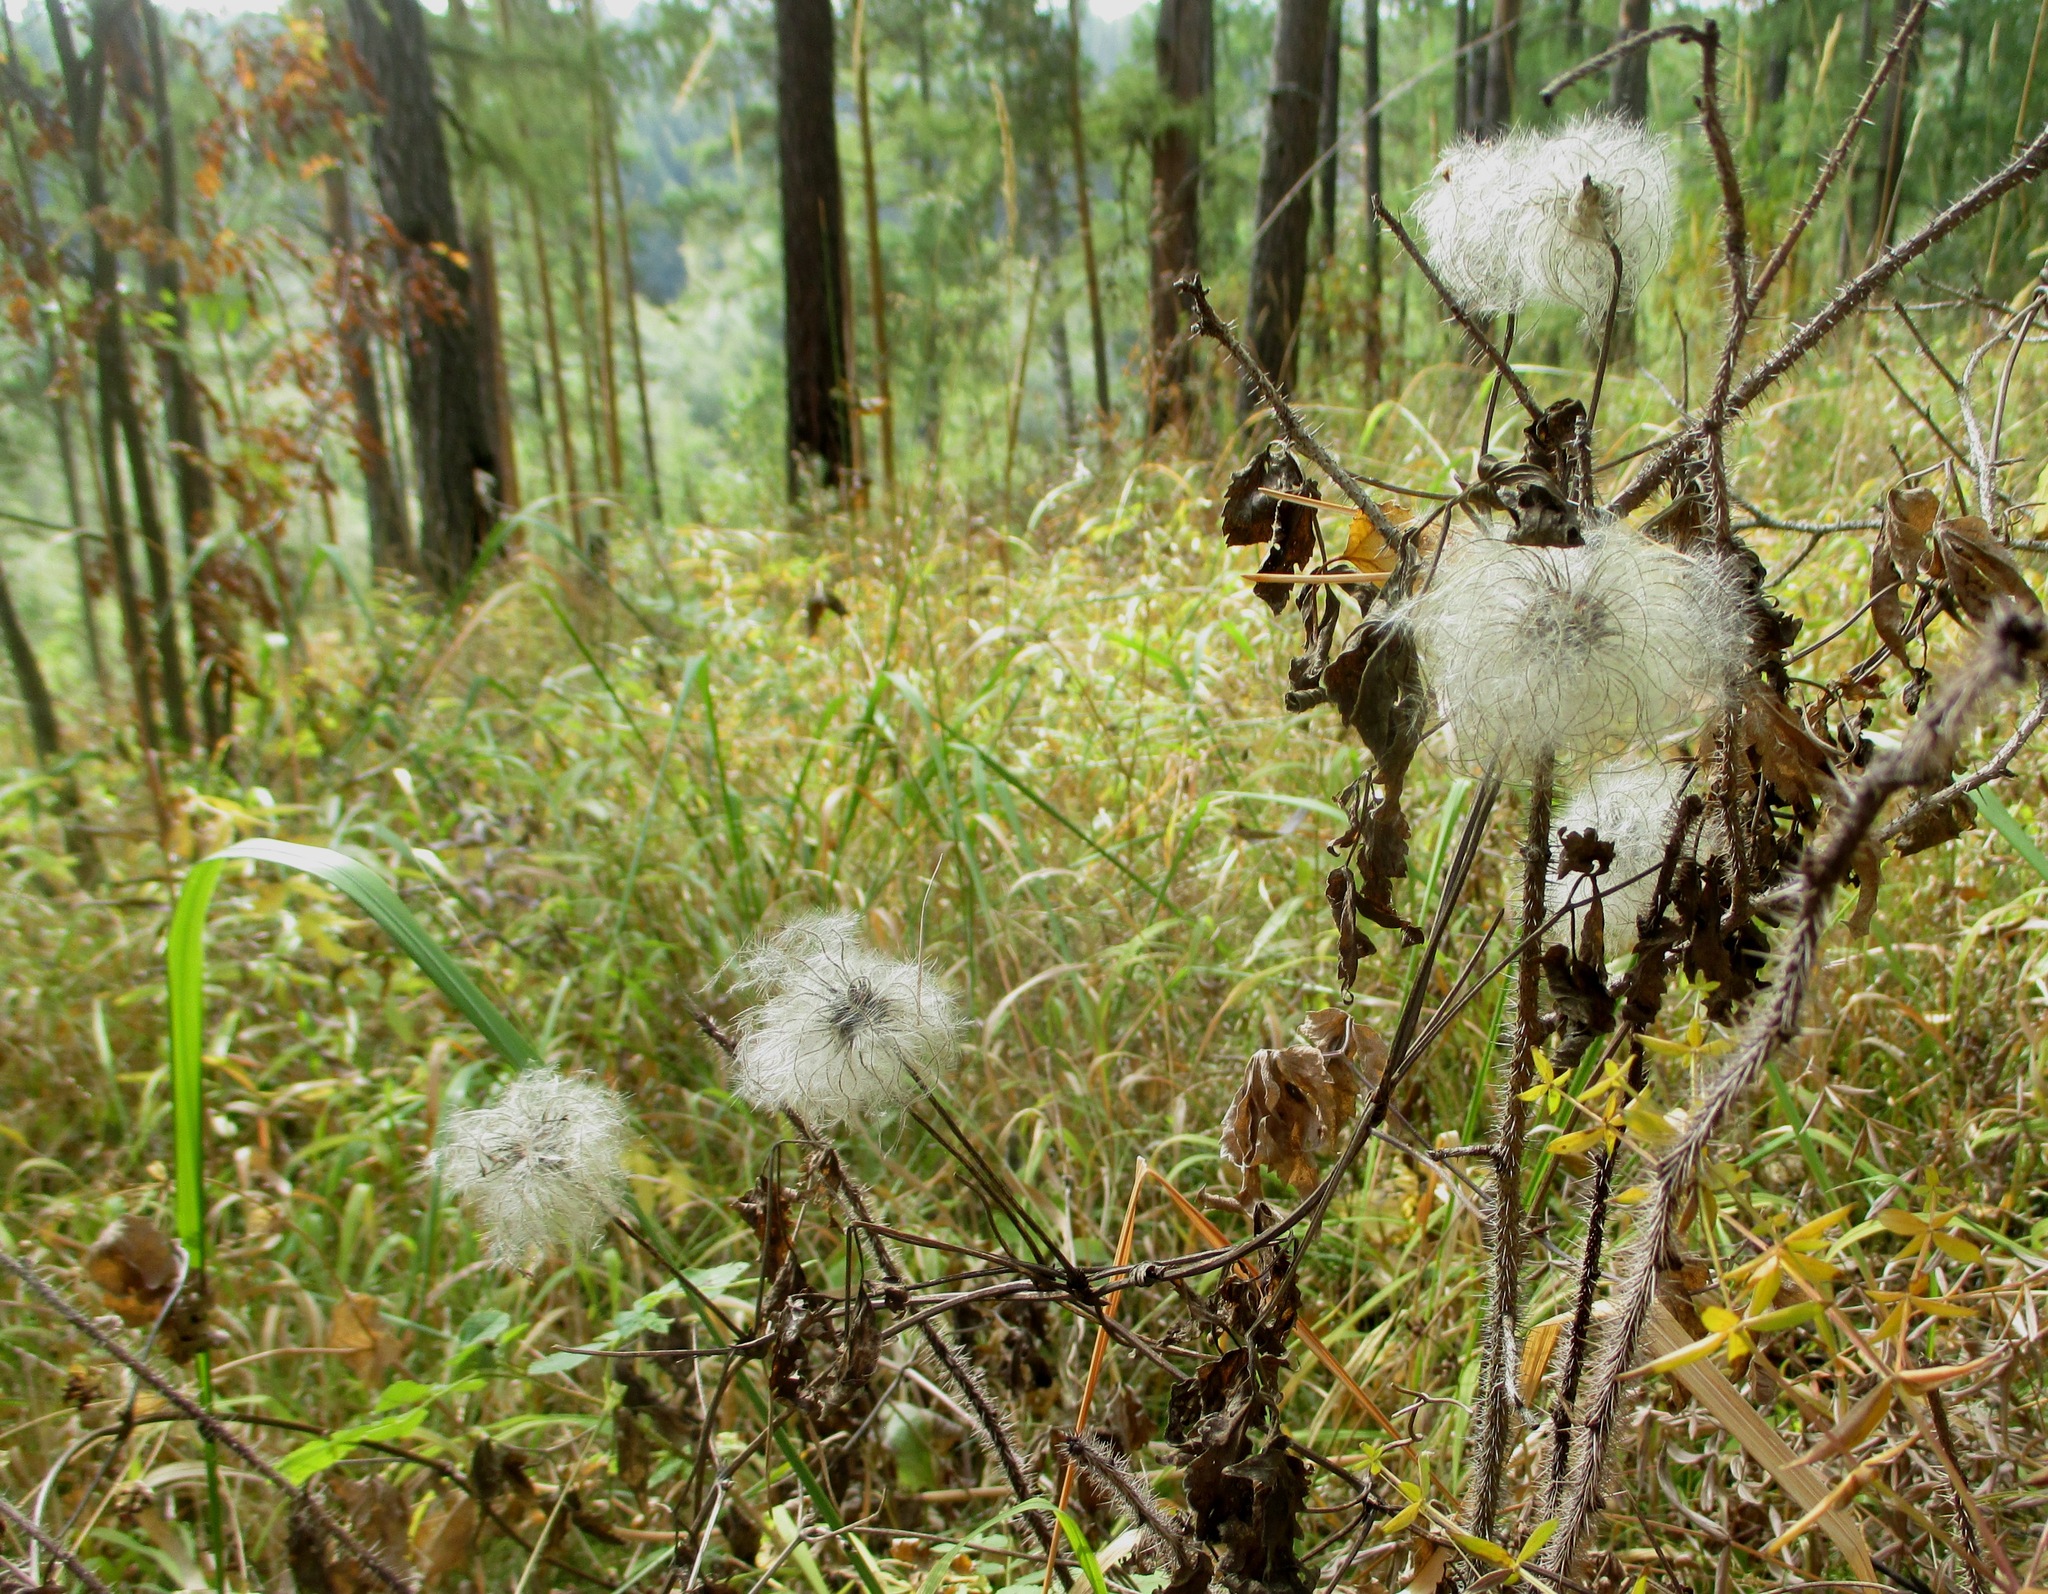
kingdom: Plantae
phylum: Tracheophyta
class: Magnoliopsida
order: Ranunculales
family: Ranunculaceae
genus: Clematis
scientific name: Clematis sibirica
